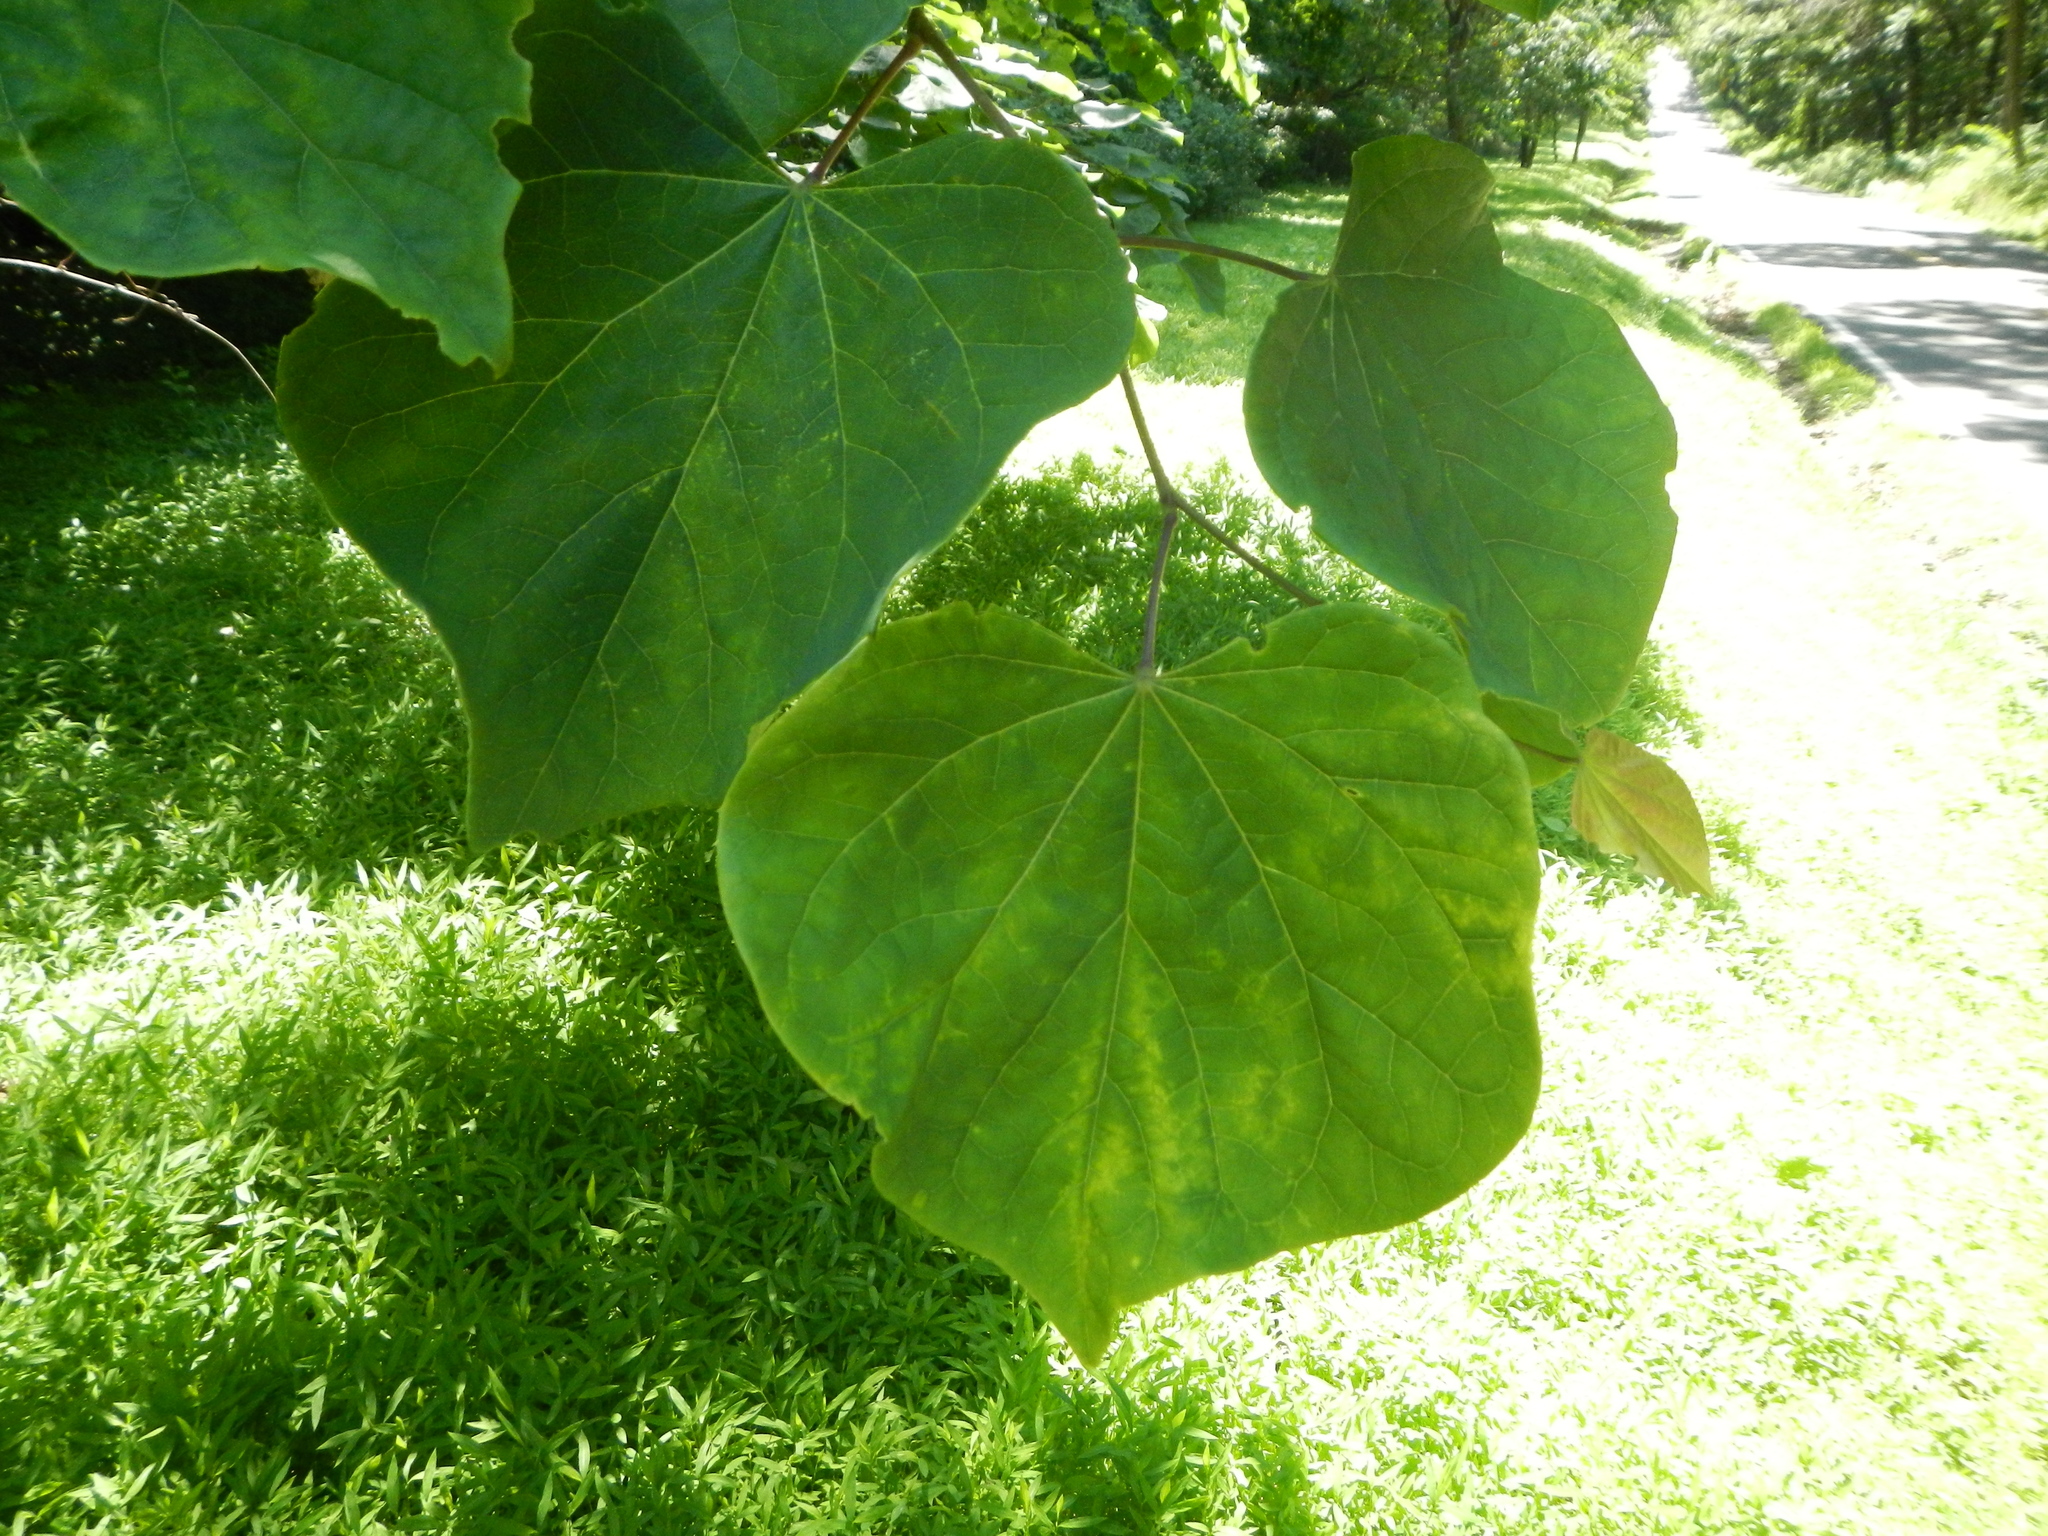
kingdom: Plantae
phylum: Tracheophyta
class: Magnoliopsida
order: Fabales
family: Fabaceae
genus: Cercis
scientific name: Cercis canadensis
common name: Eastern redbud
